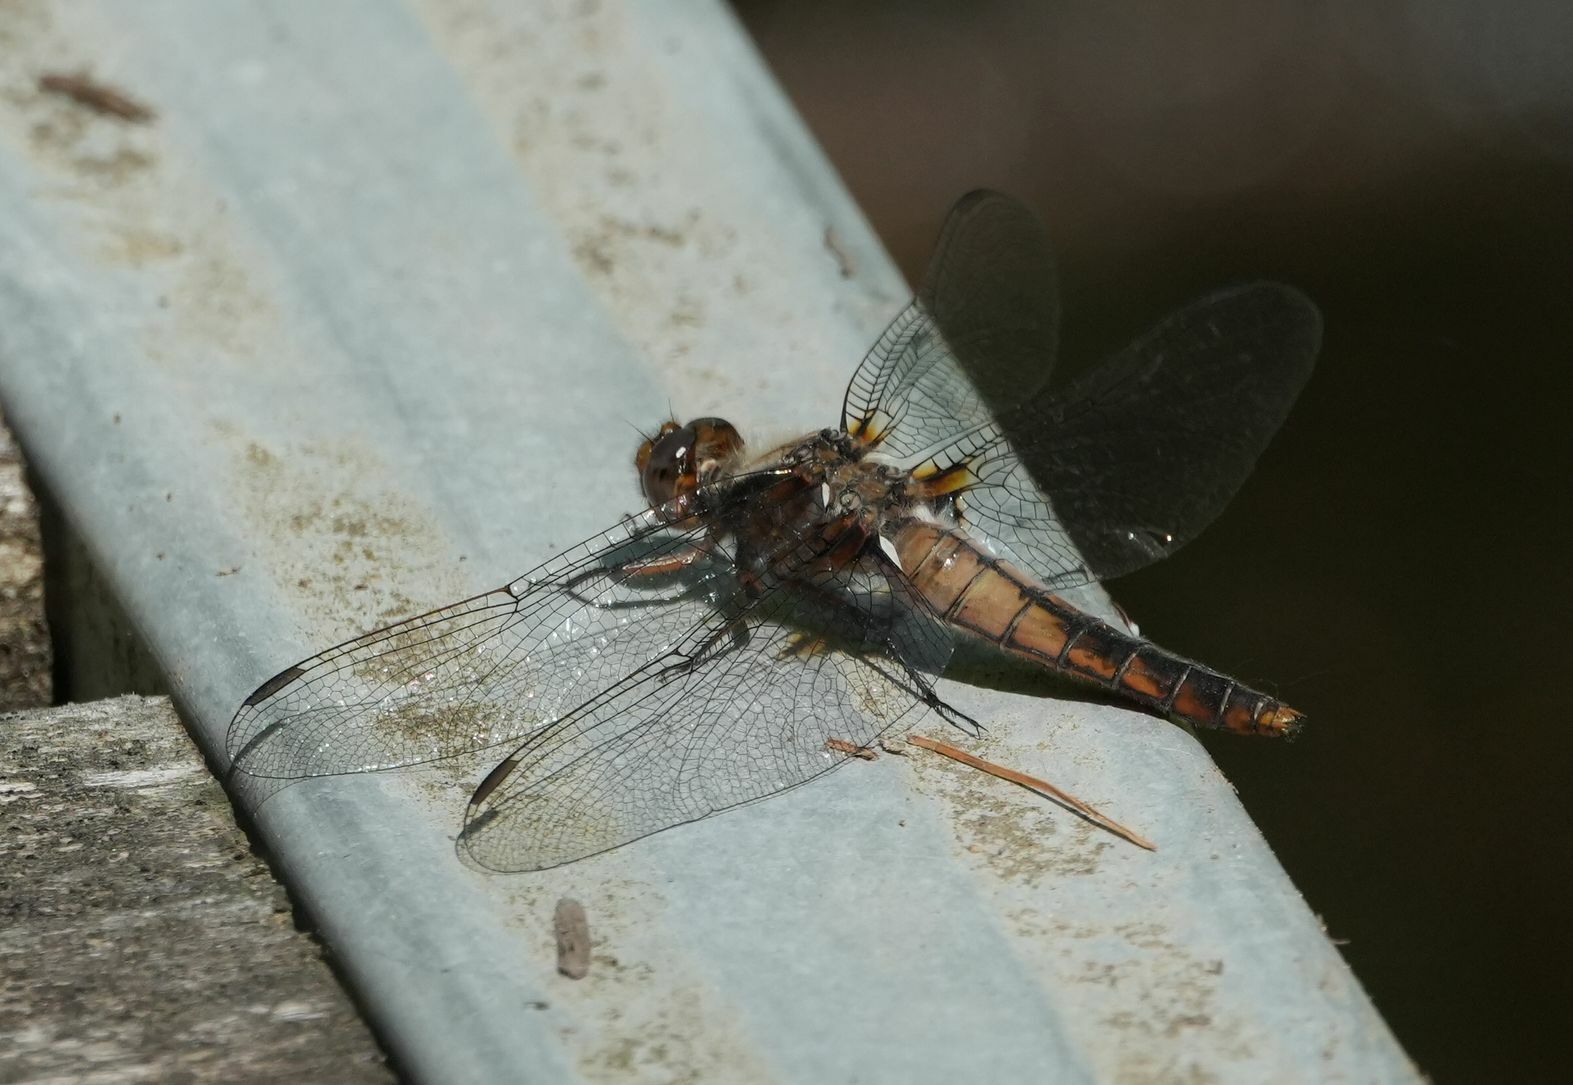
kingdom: Animalia
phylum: Arthropoda
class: Insecta
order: Odonata
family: Libellulidae
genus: Ladona
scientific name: Ladona julia
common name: Chalk-fronted corporal
